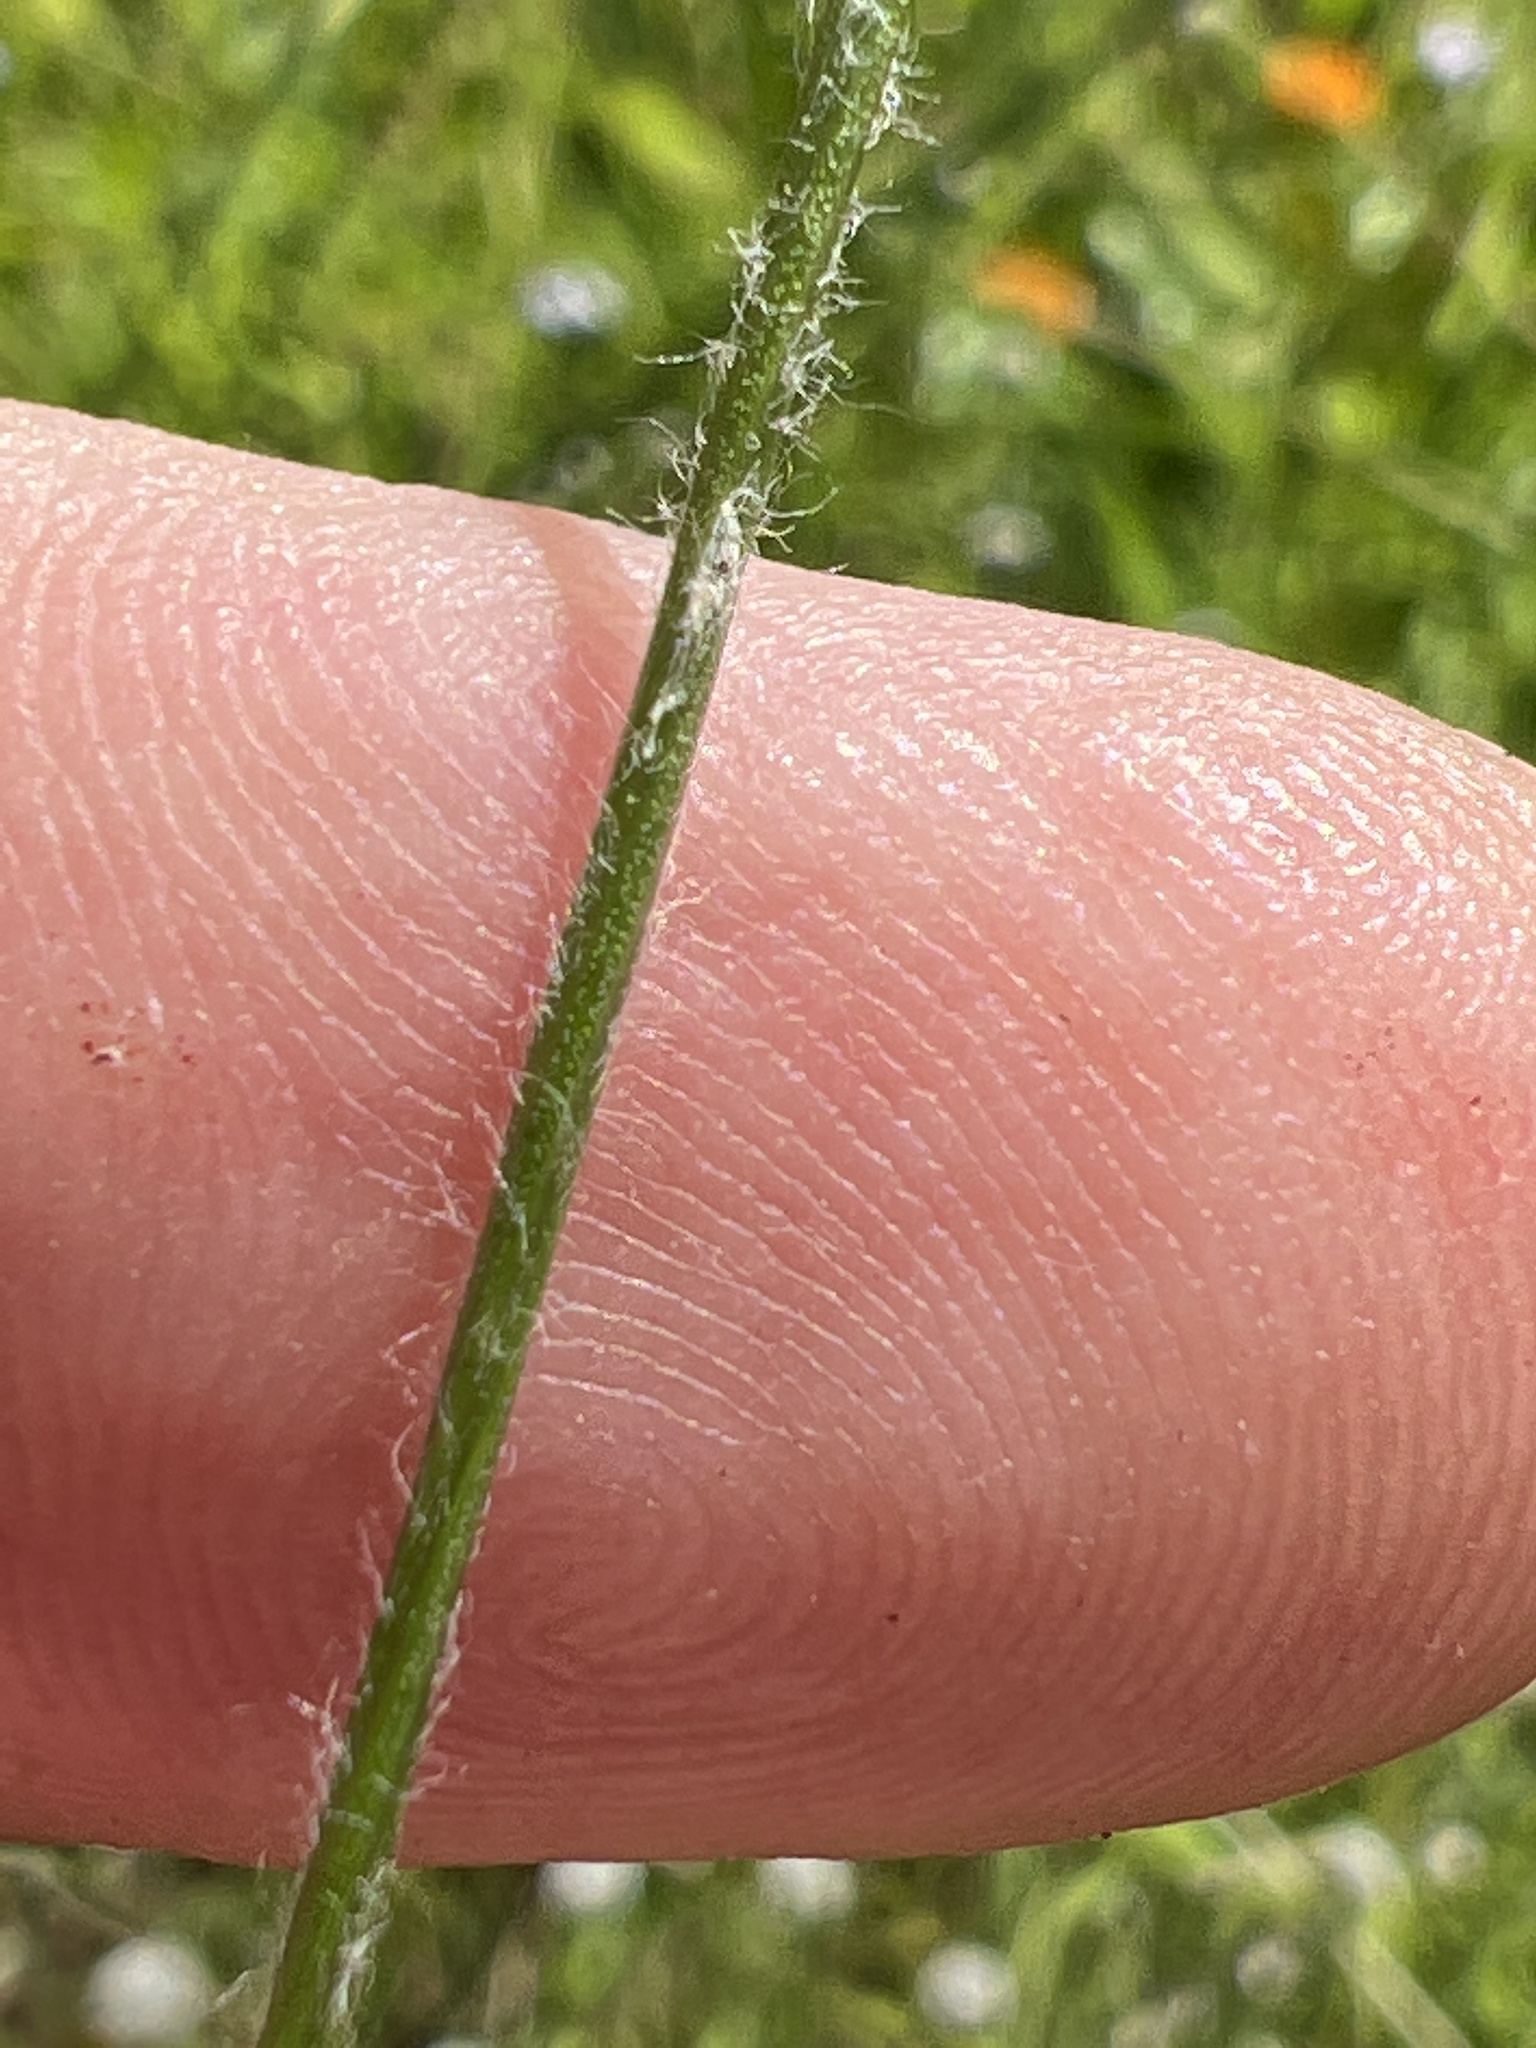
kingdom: Plantae
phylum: Tracheophyta
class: Liliopsida
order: Poales
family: Eriocaulaceae
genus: Paepalanthus
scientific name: Paepalanthus anceps
